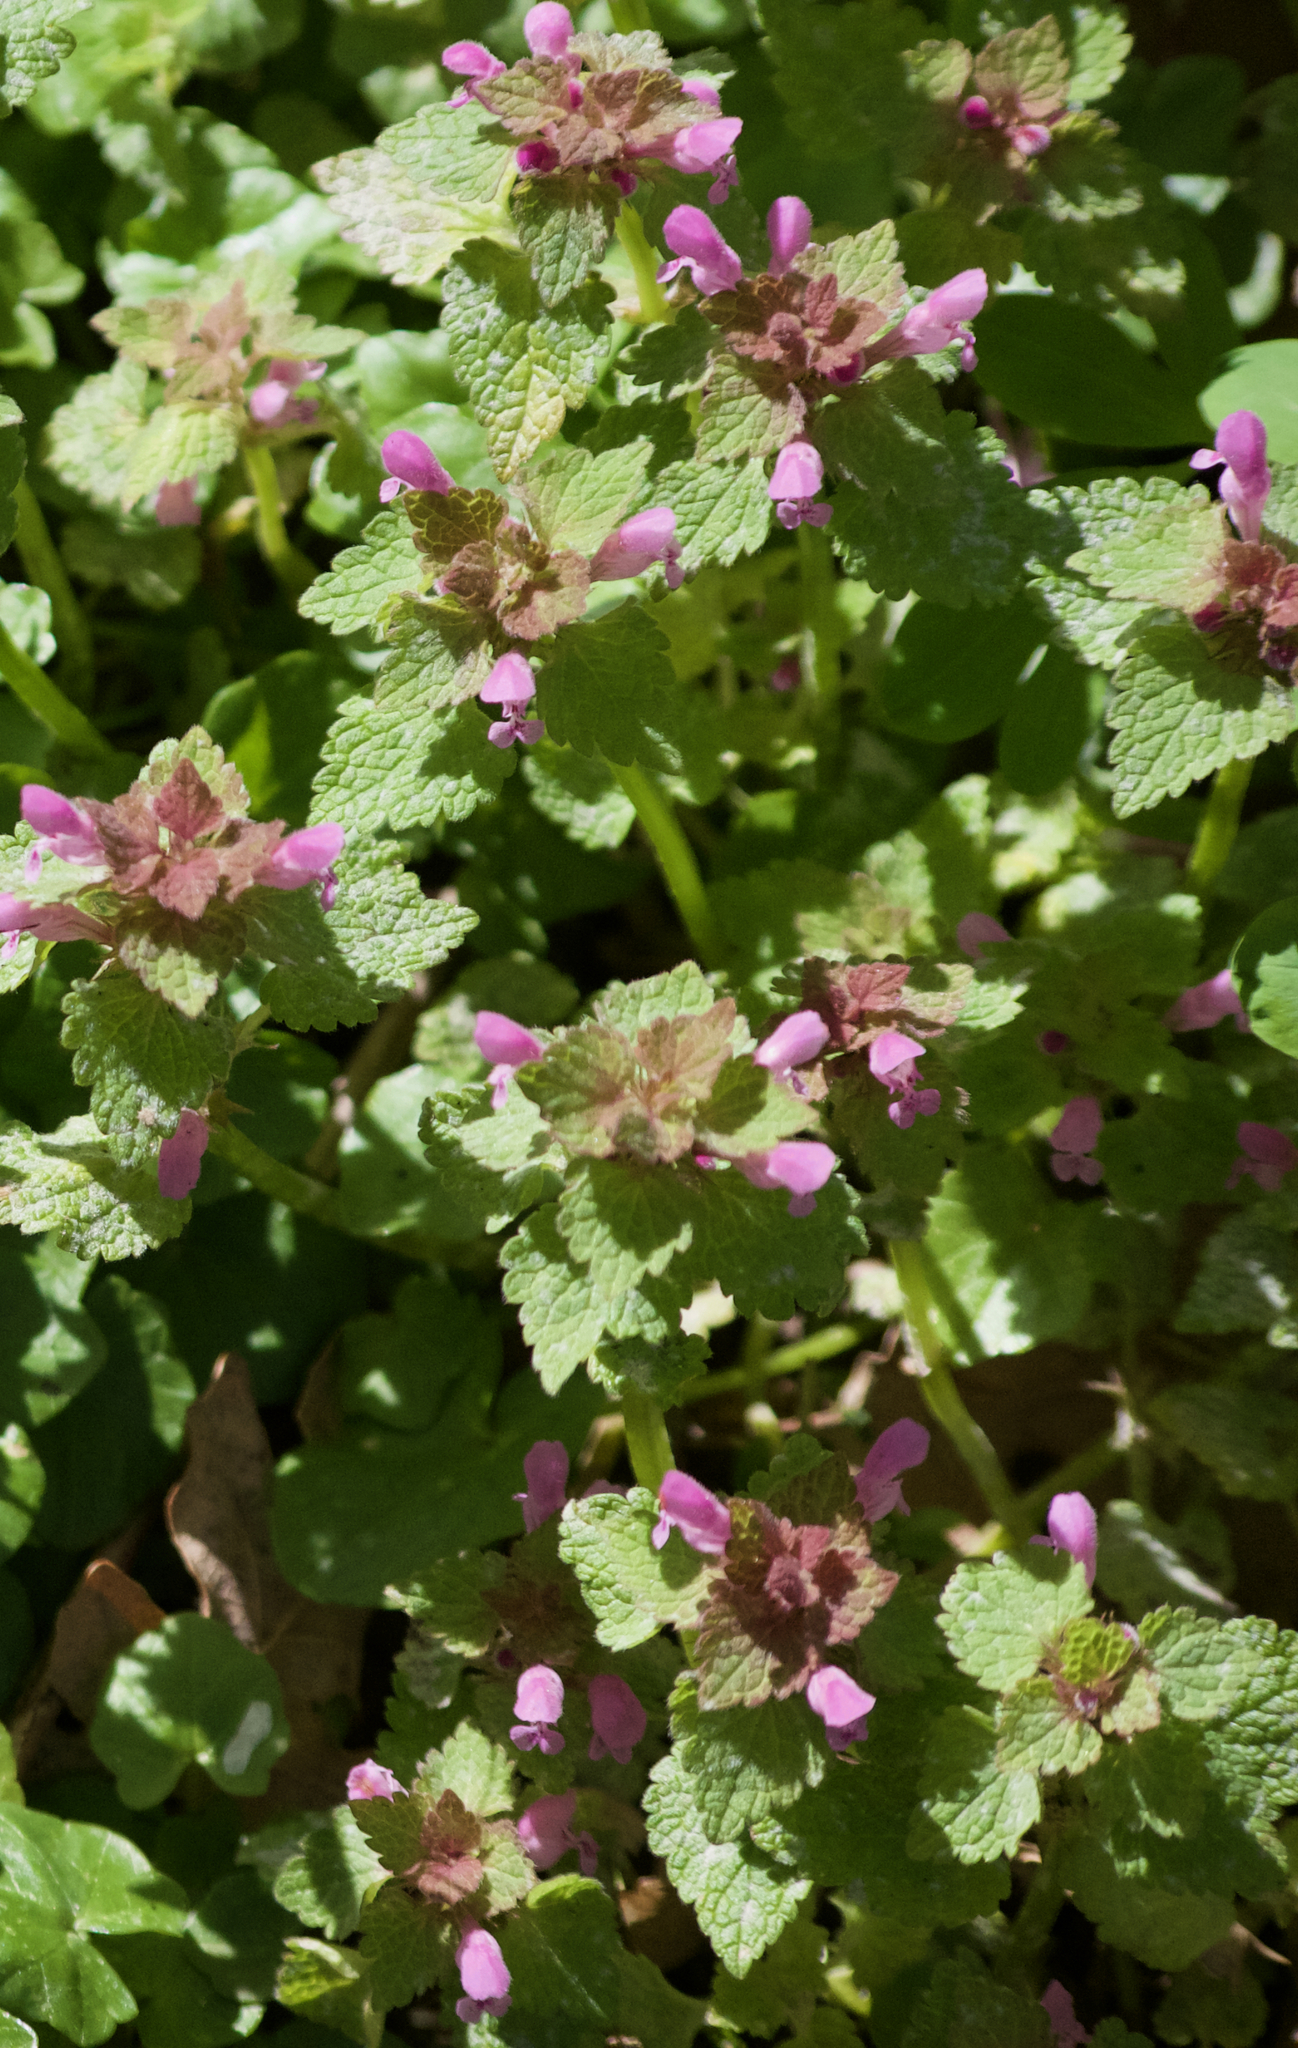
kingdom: Plantae
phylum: Tracheophyta
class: Magnoliopsida
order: Lamiales
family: Lamiaceae
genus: Lamium
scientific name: Lamium purpureum
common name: Red dead-nettle
